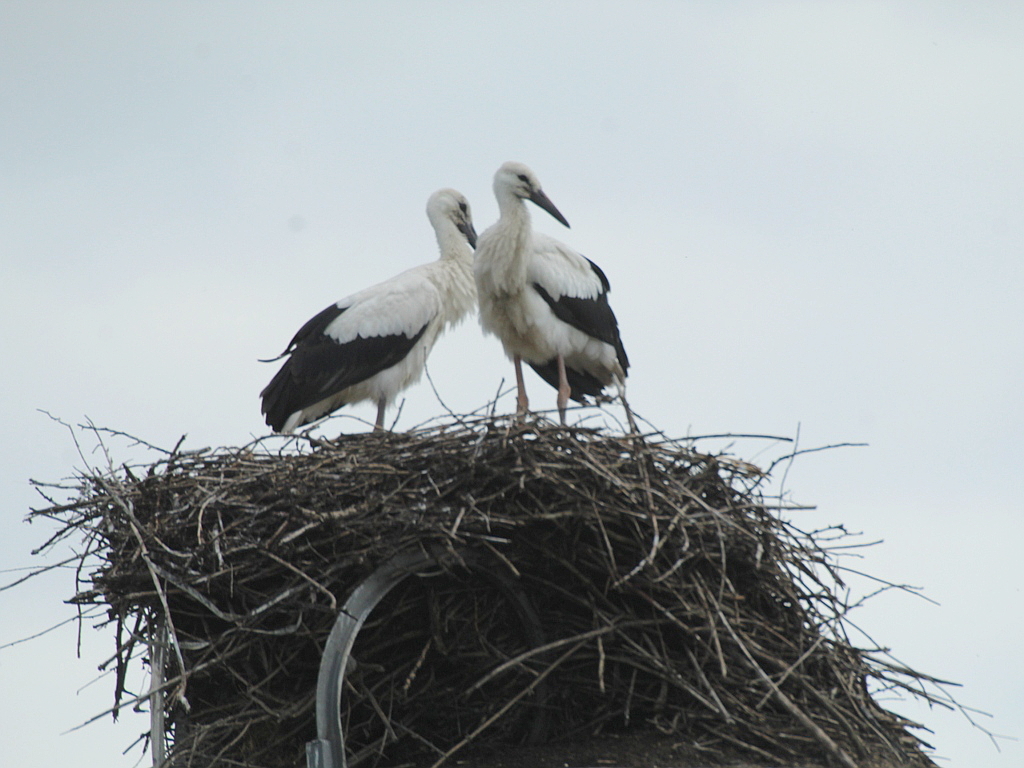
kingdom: Animalia
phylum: Chordata
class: Aves
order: Ciconiiformes
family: Ciconiidae
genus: Ciconia
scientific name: Ciconia ciconia
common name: White stork
